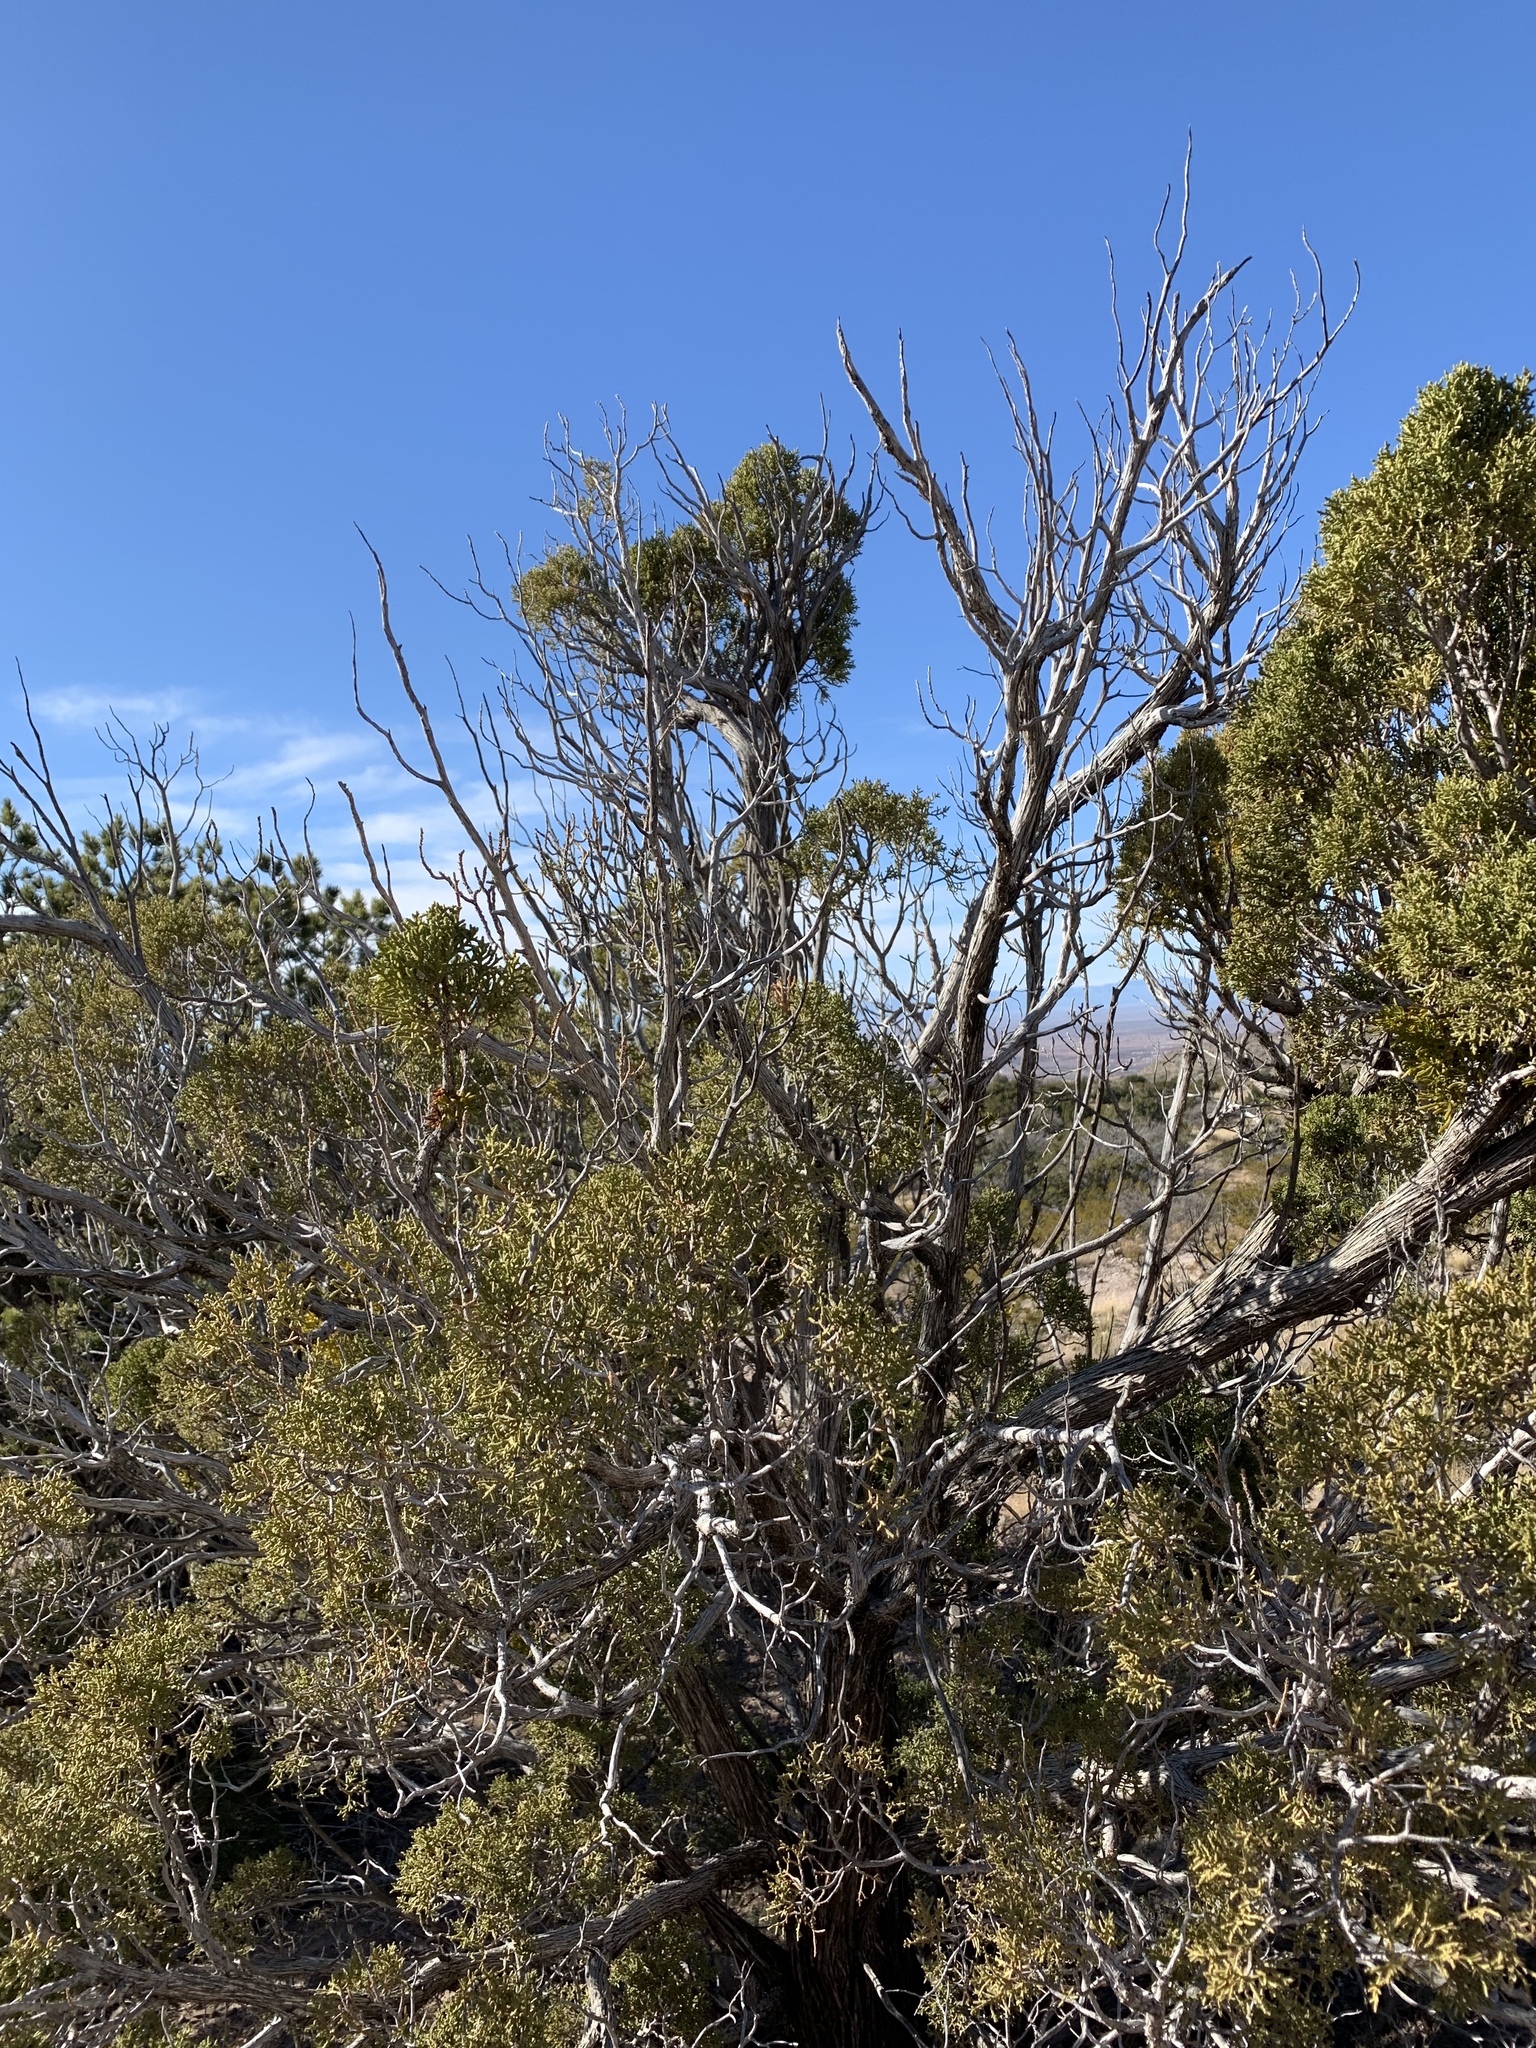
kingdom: Plantae
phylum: Tracheophyta
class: Pinopsida
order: Pinales
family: Cupressaceae
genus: Juniperus
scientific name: Juniperus monosperma
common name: One-seed juniper
